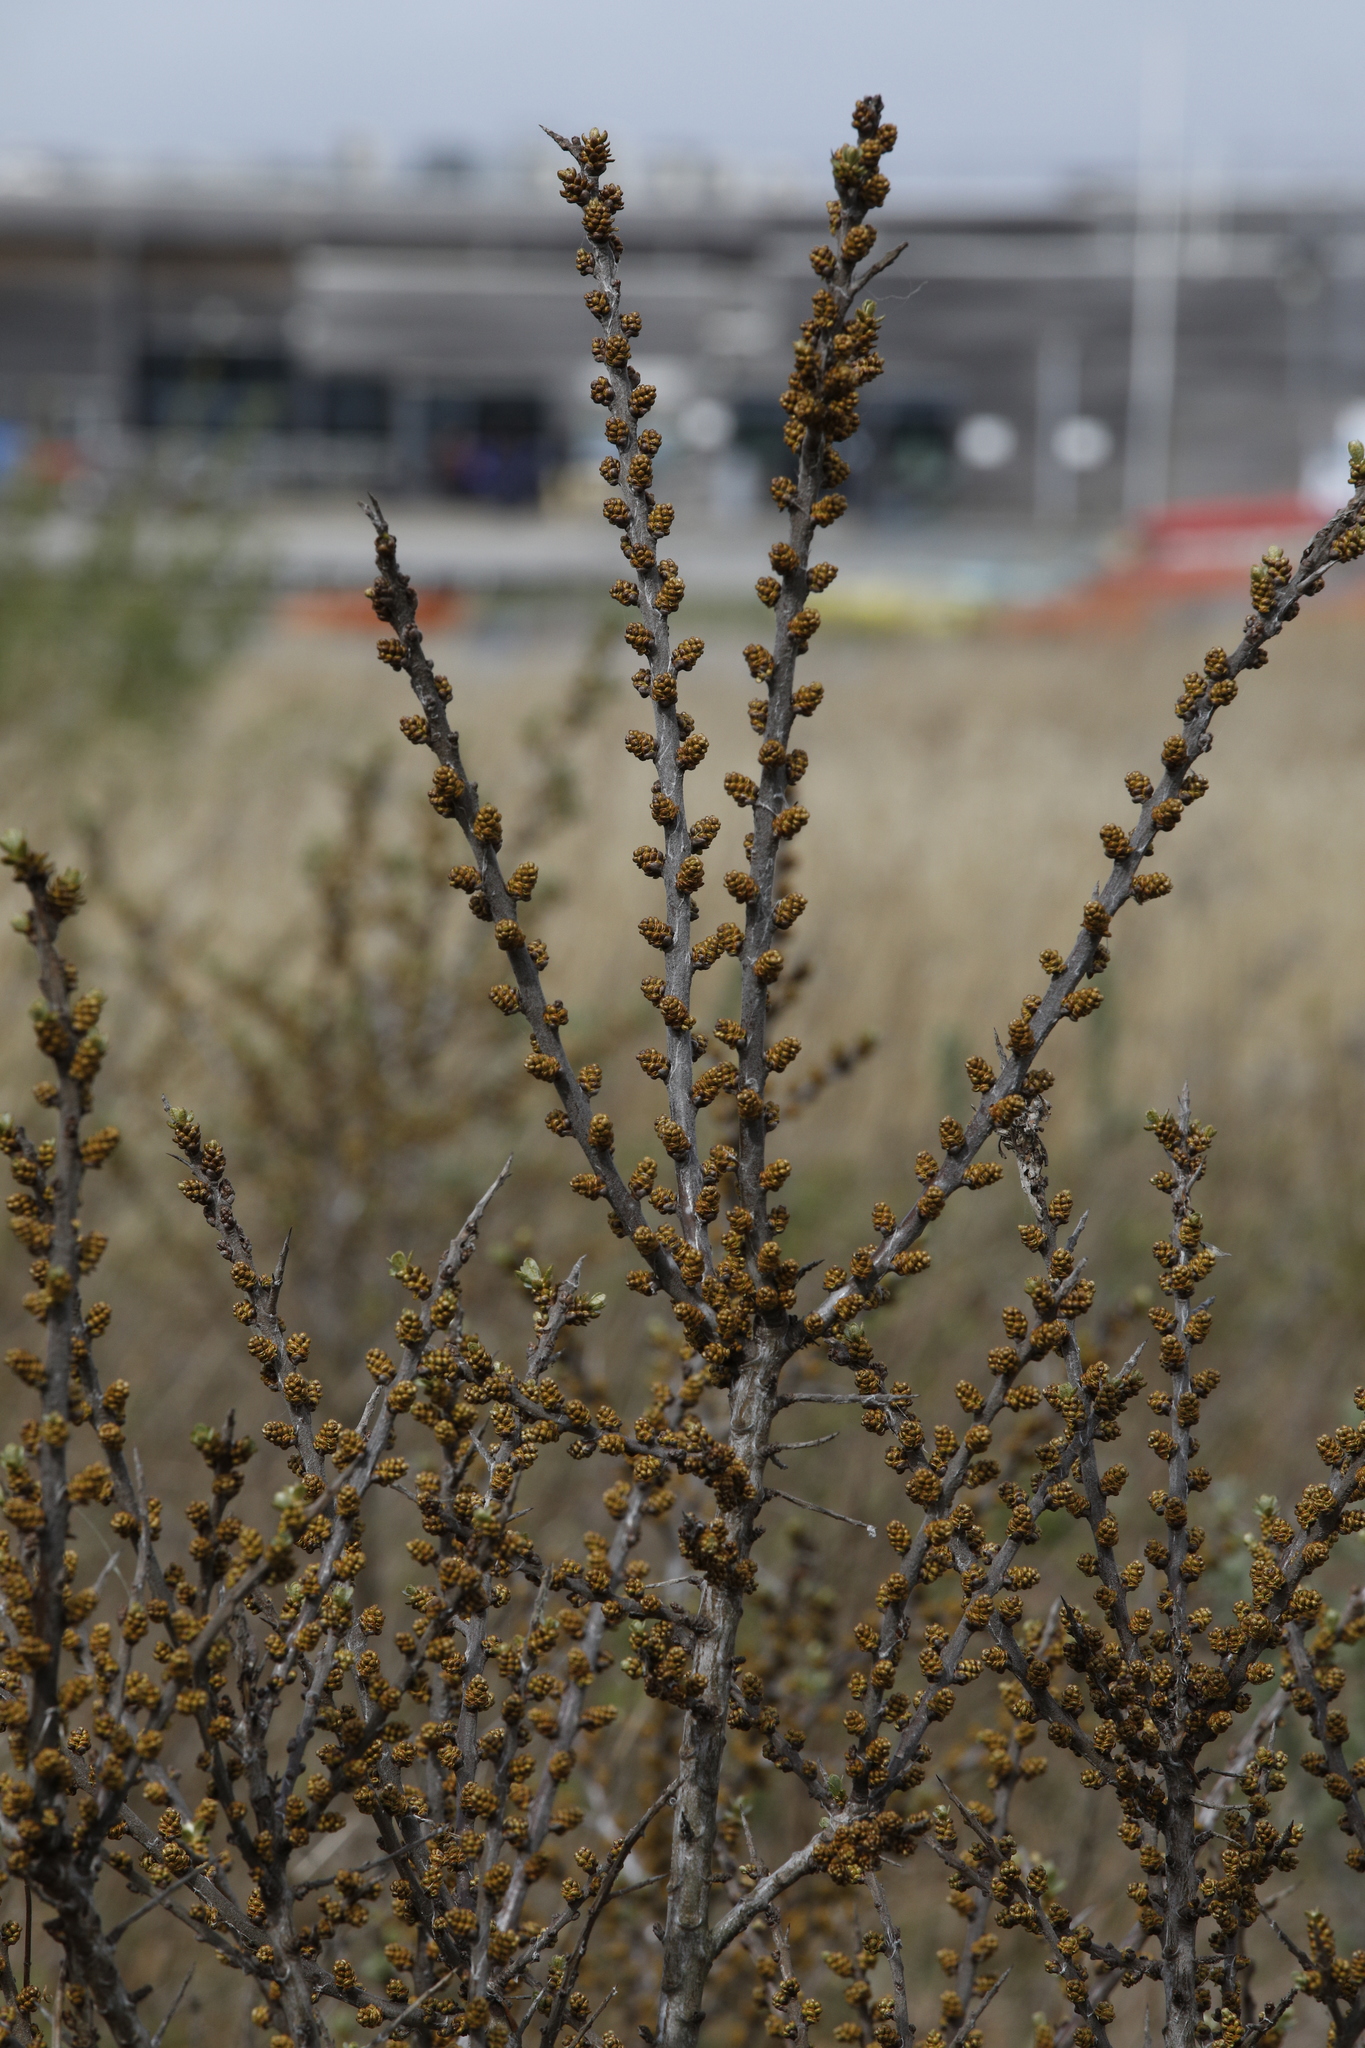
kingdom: Plantae
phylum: Tracheophyta
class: Magnoliopsida
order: Rosales
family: Elaeagnaceae
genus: Hippophae
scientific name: Hippophae rhamnoides
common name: Sea-buckthorn
